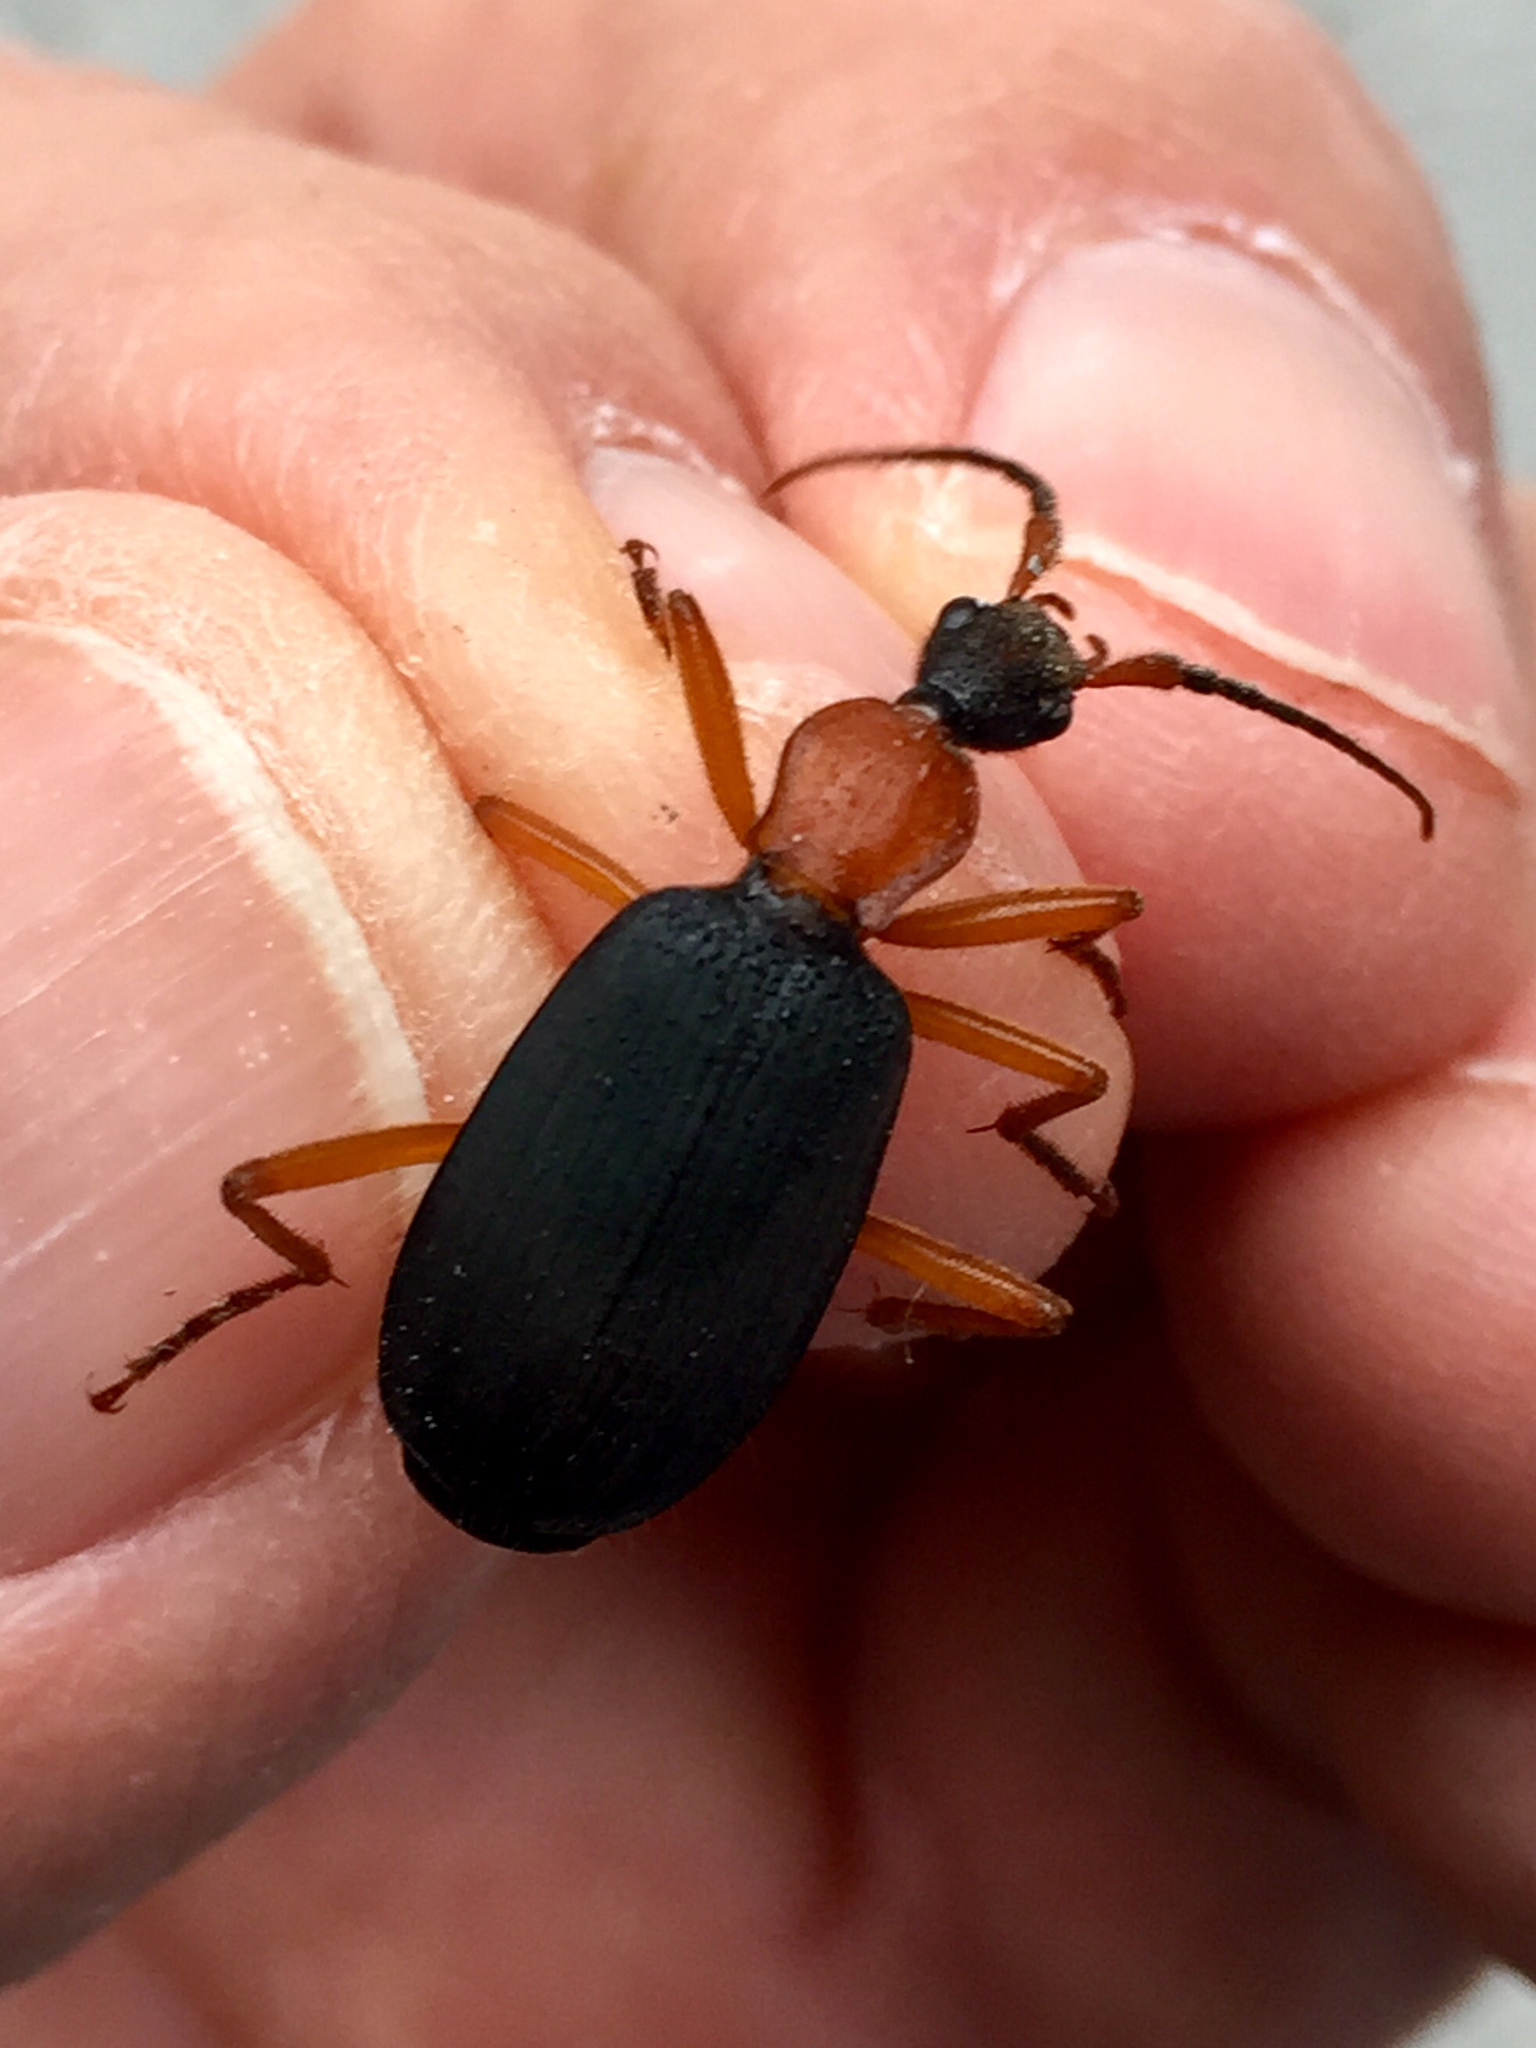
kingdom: Animalia
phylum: Arthropoda
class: Insecta
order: Coleoptera
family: Carabidae
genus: Galerita
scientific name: Galerita bicolor
